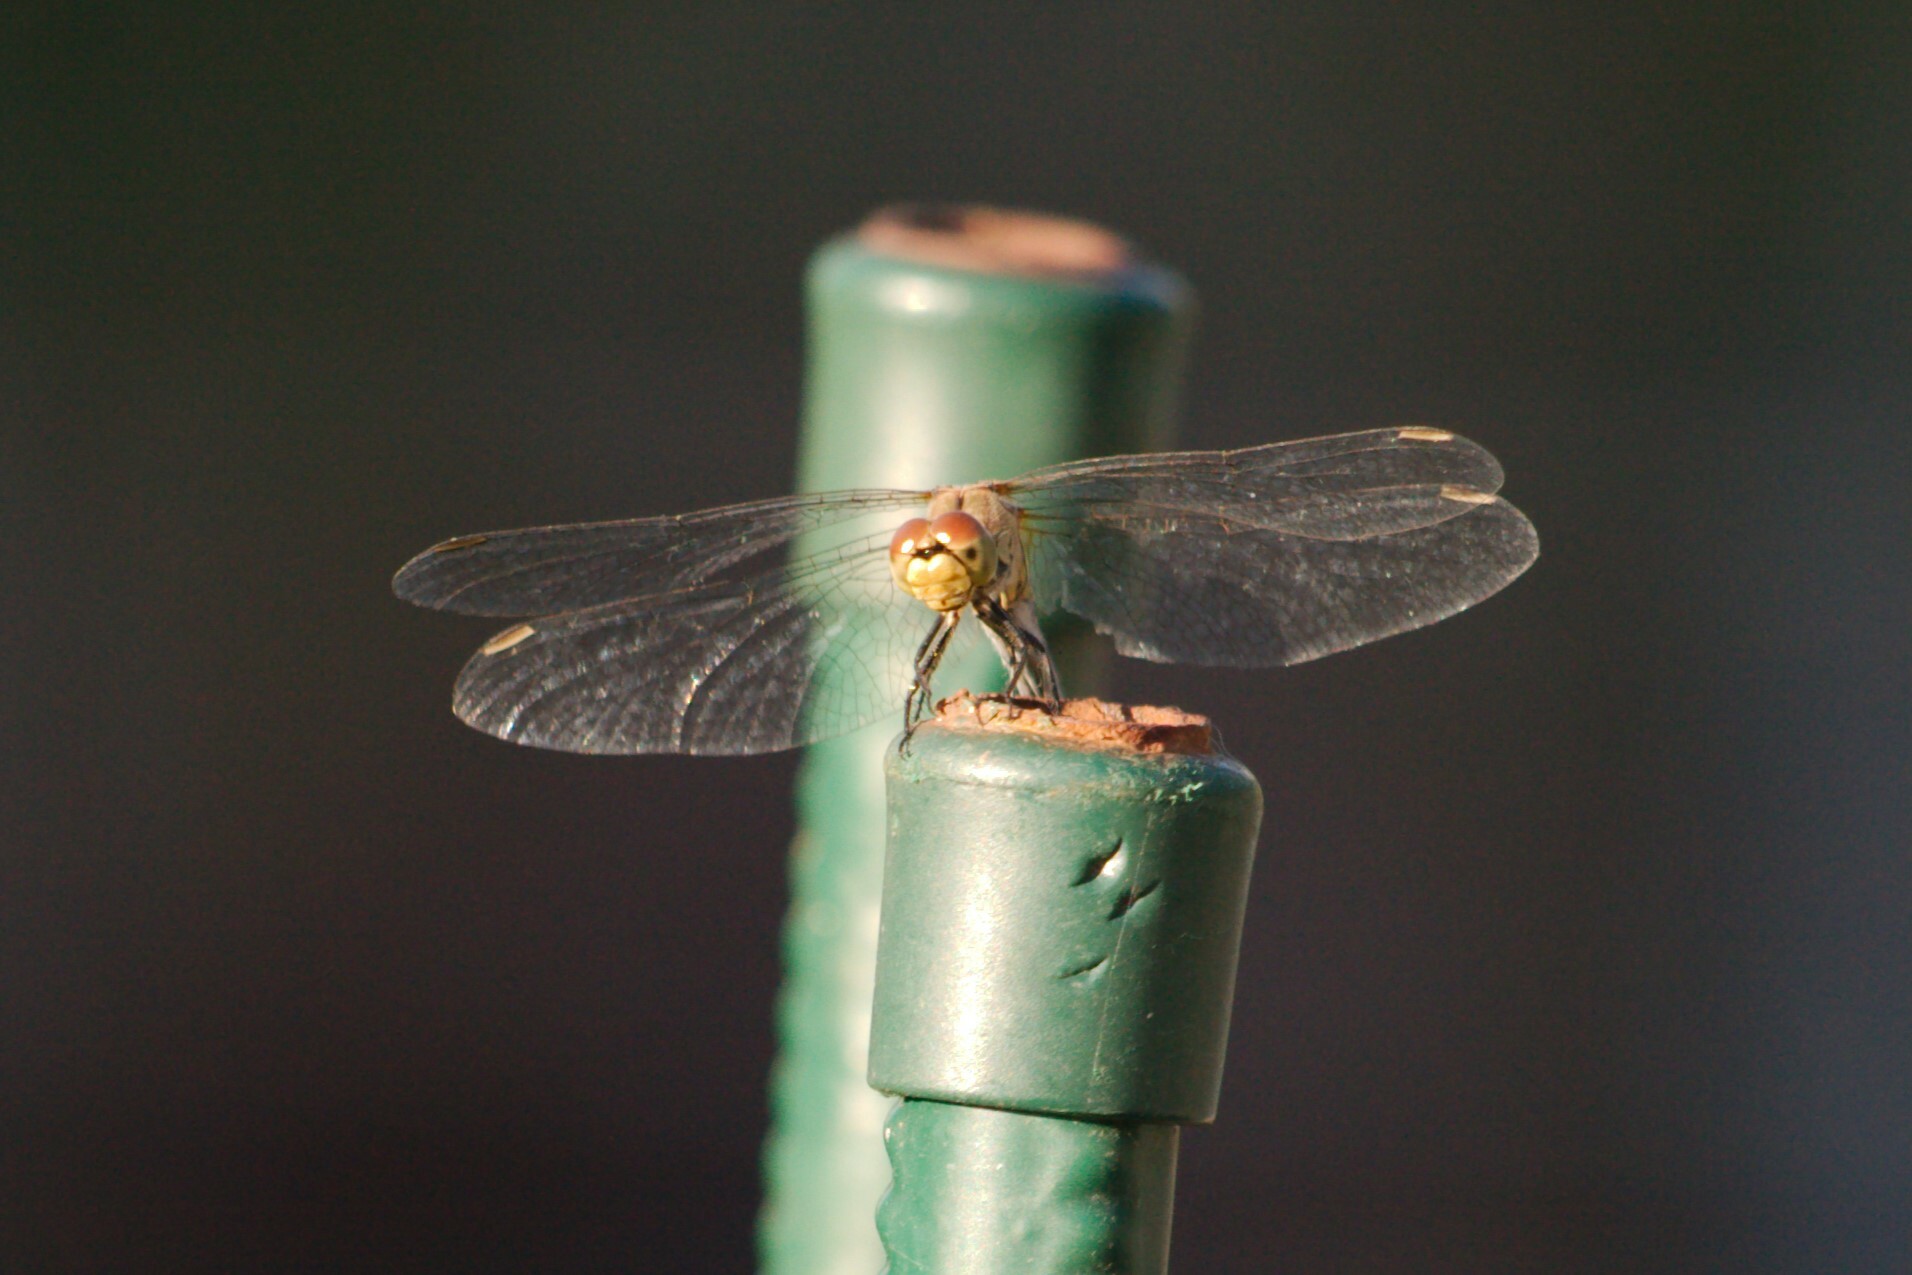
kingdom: Animalia
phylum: Arthropoda
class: Insecta
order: Odonata
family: Libellulidae
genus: Sympetrum
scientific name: Sympetrum sanguineum
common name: Ruddy darter
